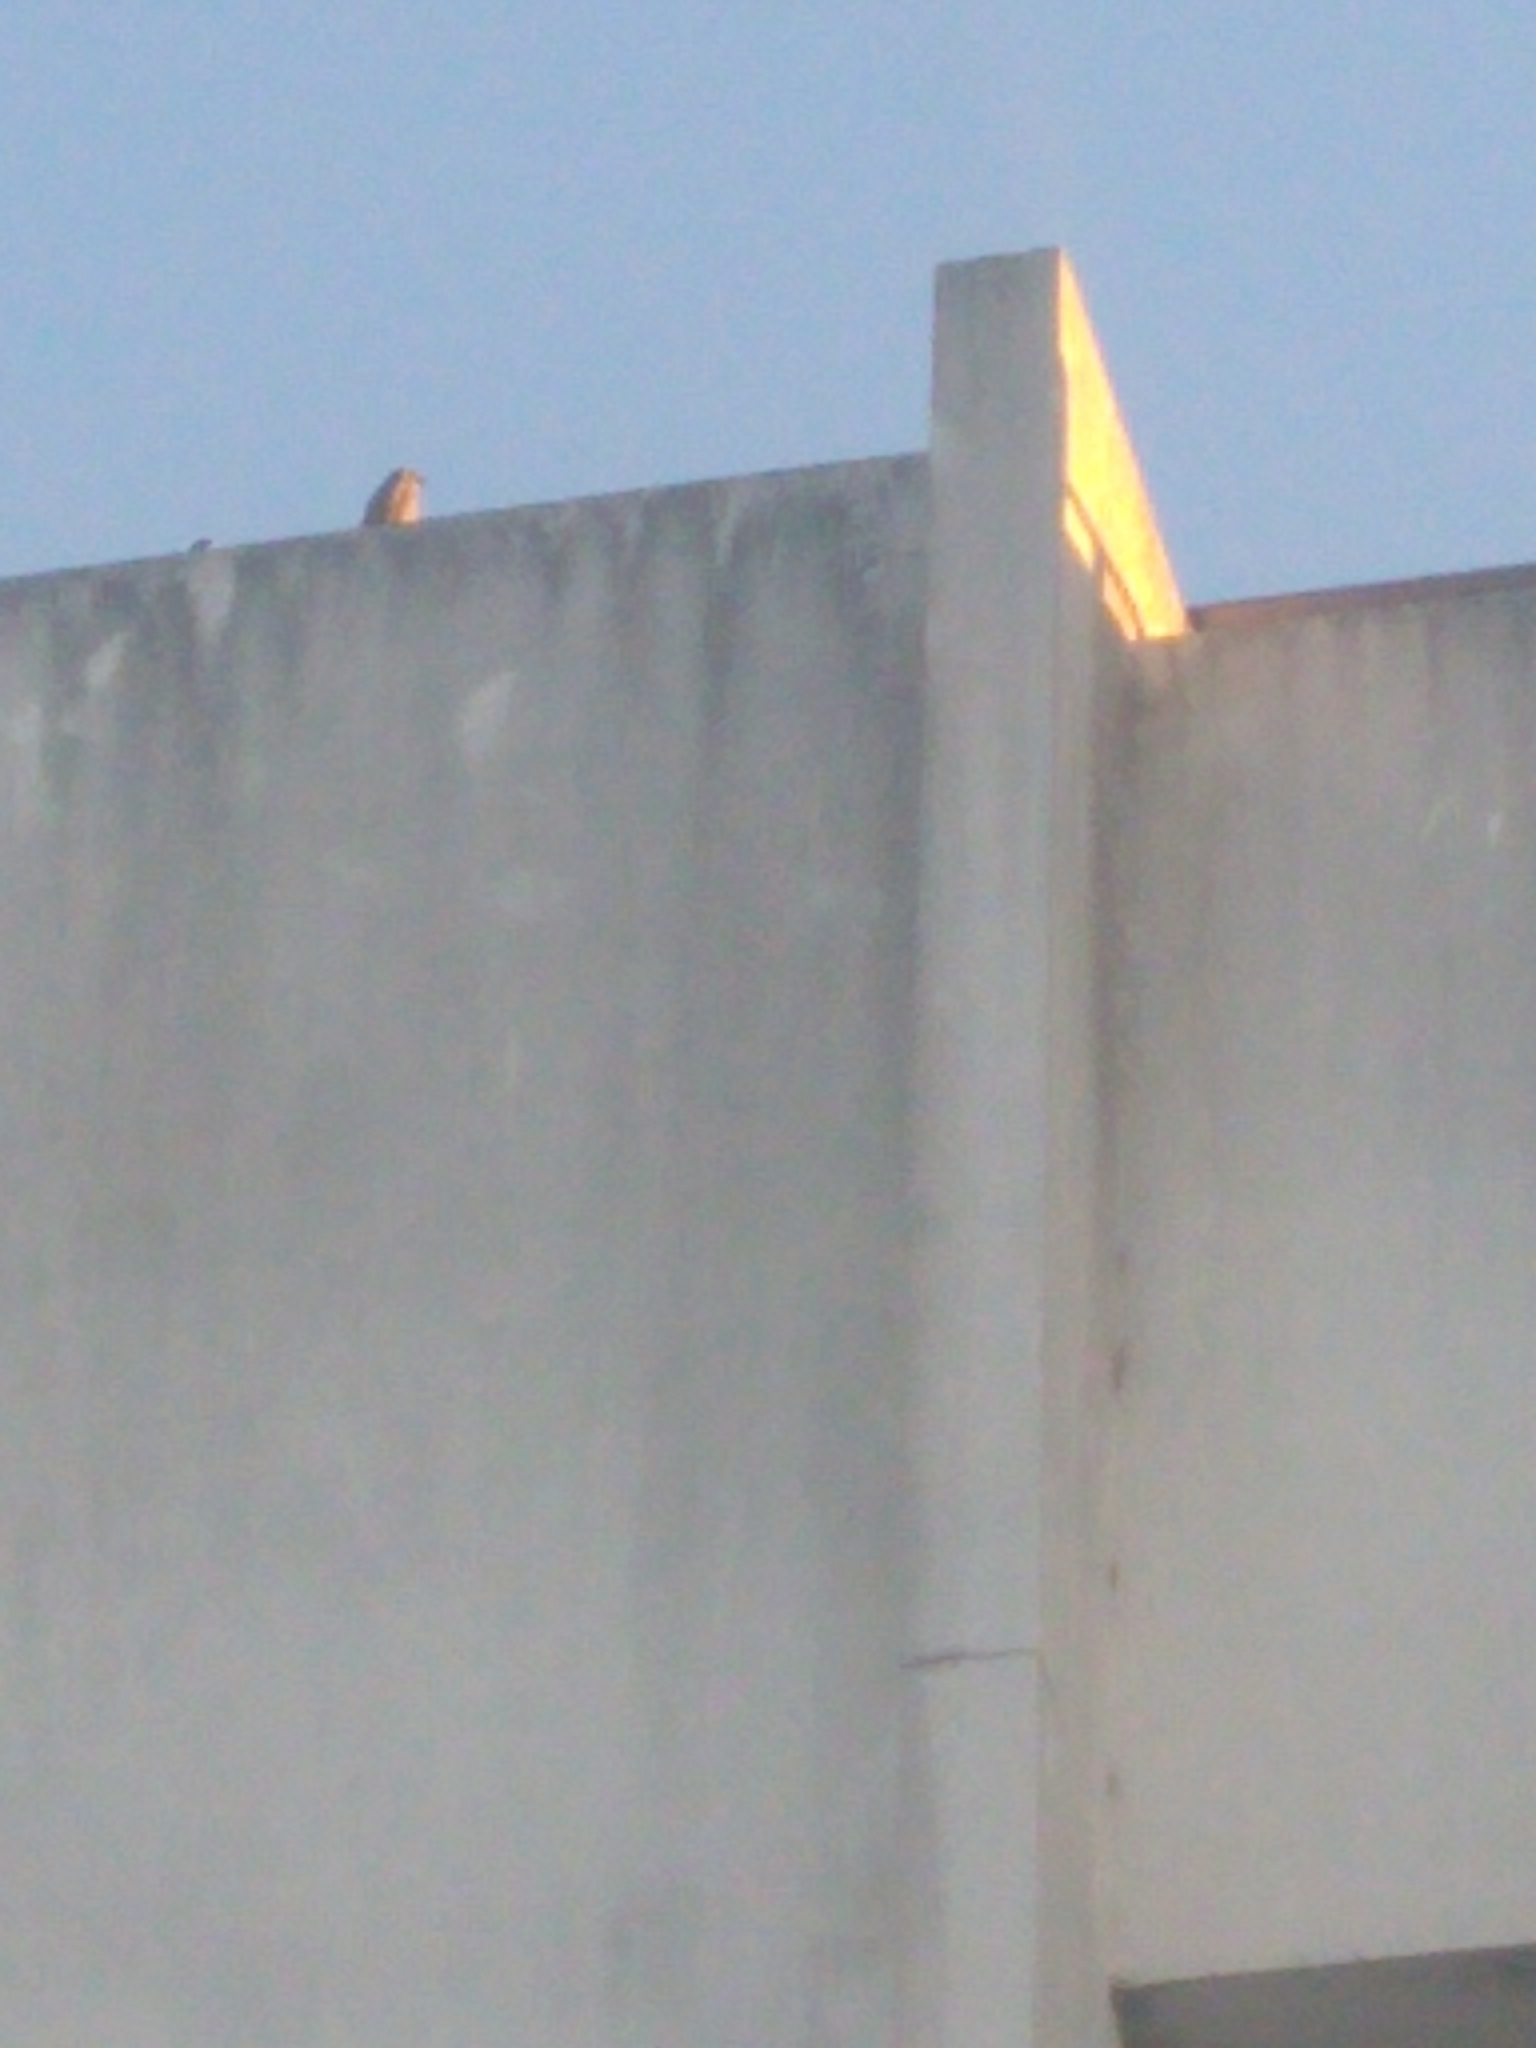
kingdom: Animalia
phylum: Chordata
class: Aves
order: Passeriformes
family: Icteridae
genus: Agelaioides
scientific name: Agelaioides badius
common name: Baywing
